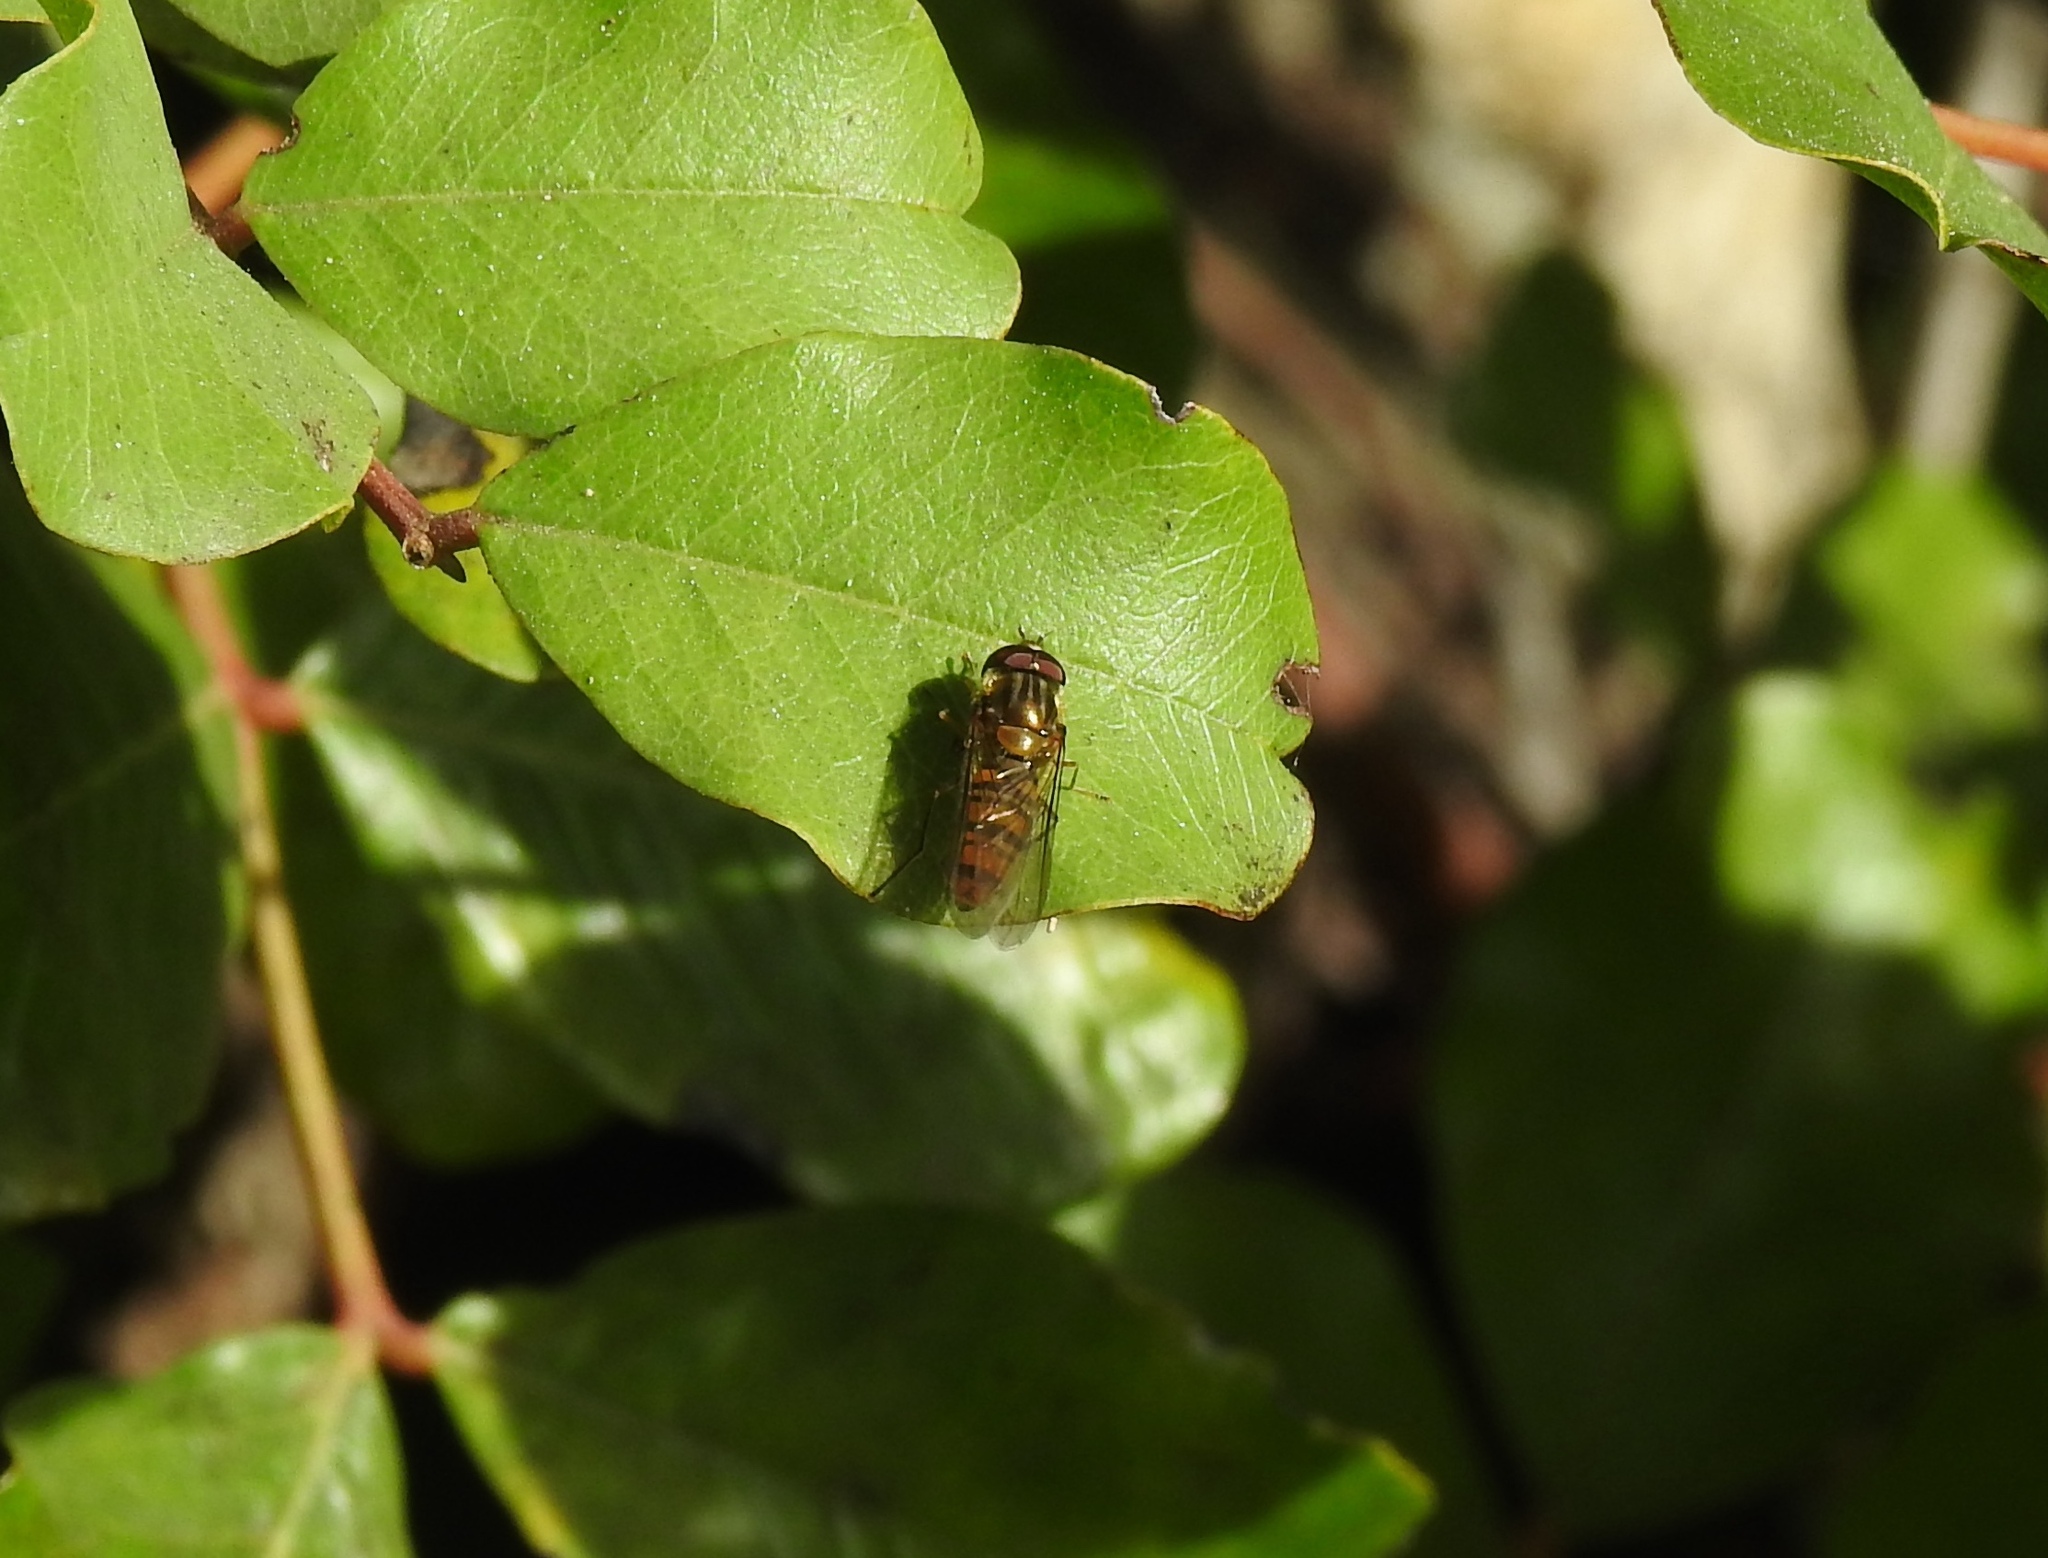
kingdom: Animalia
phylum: Arthropoda
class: Insecta
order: Diptera
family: Syrphidae
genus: Episyrphus
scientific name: Episyrphus balteatus
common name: Marmalade hoverfly
